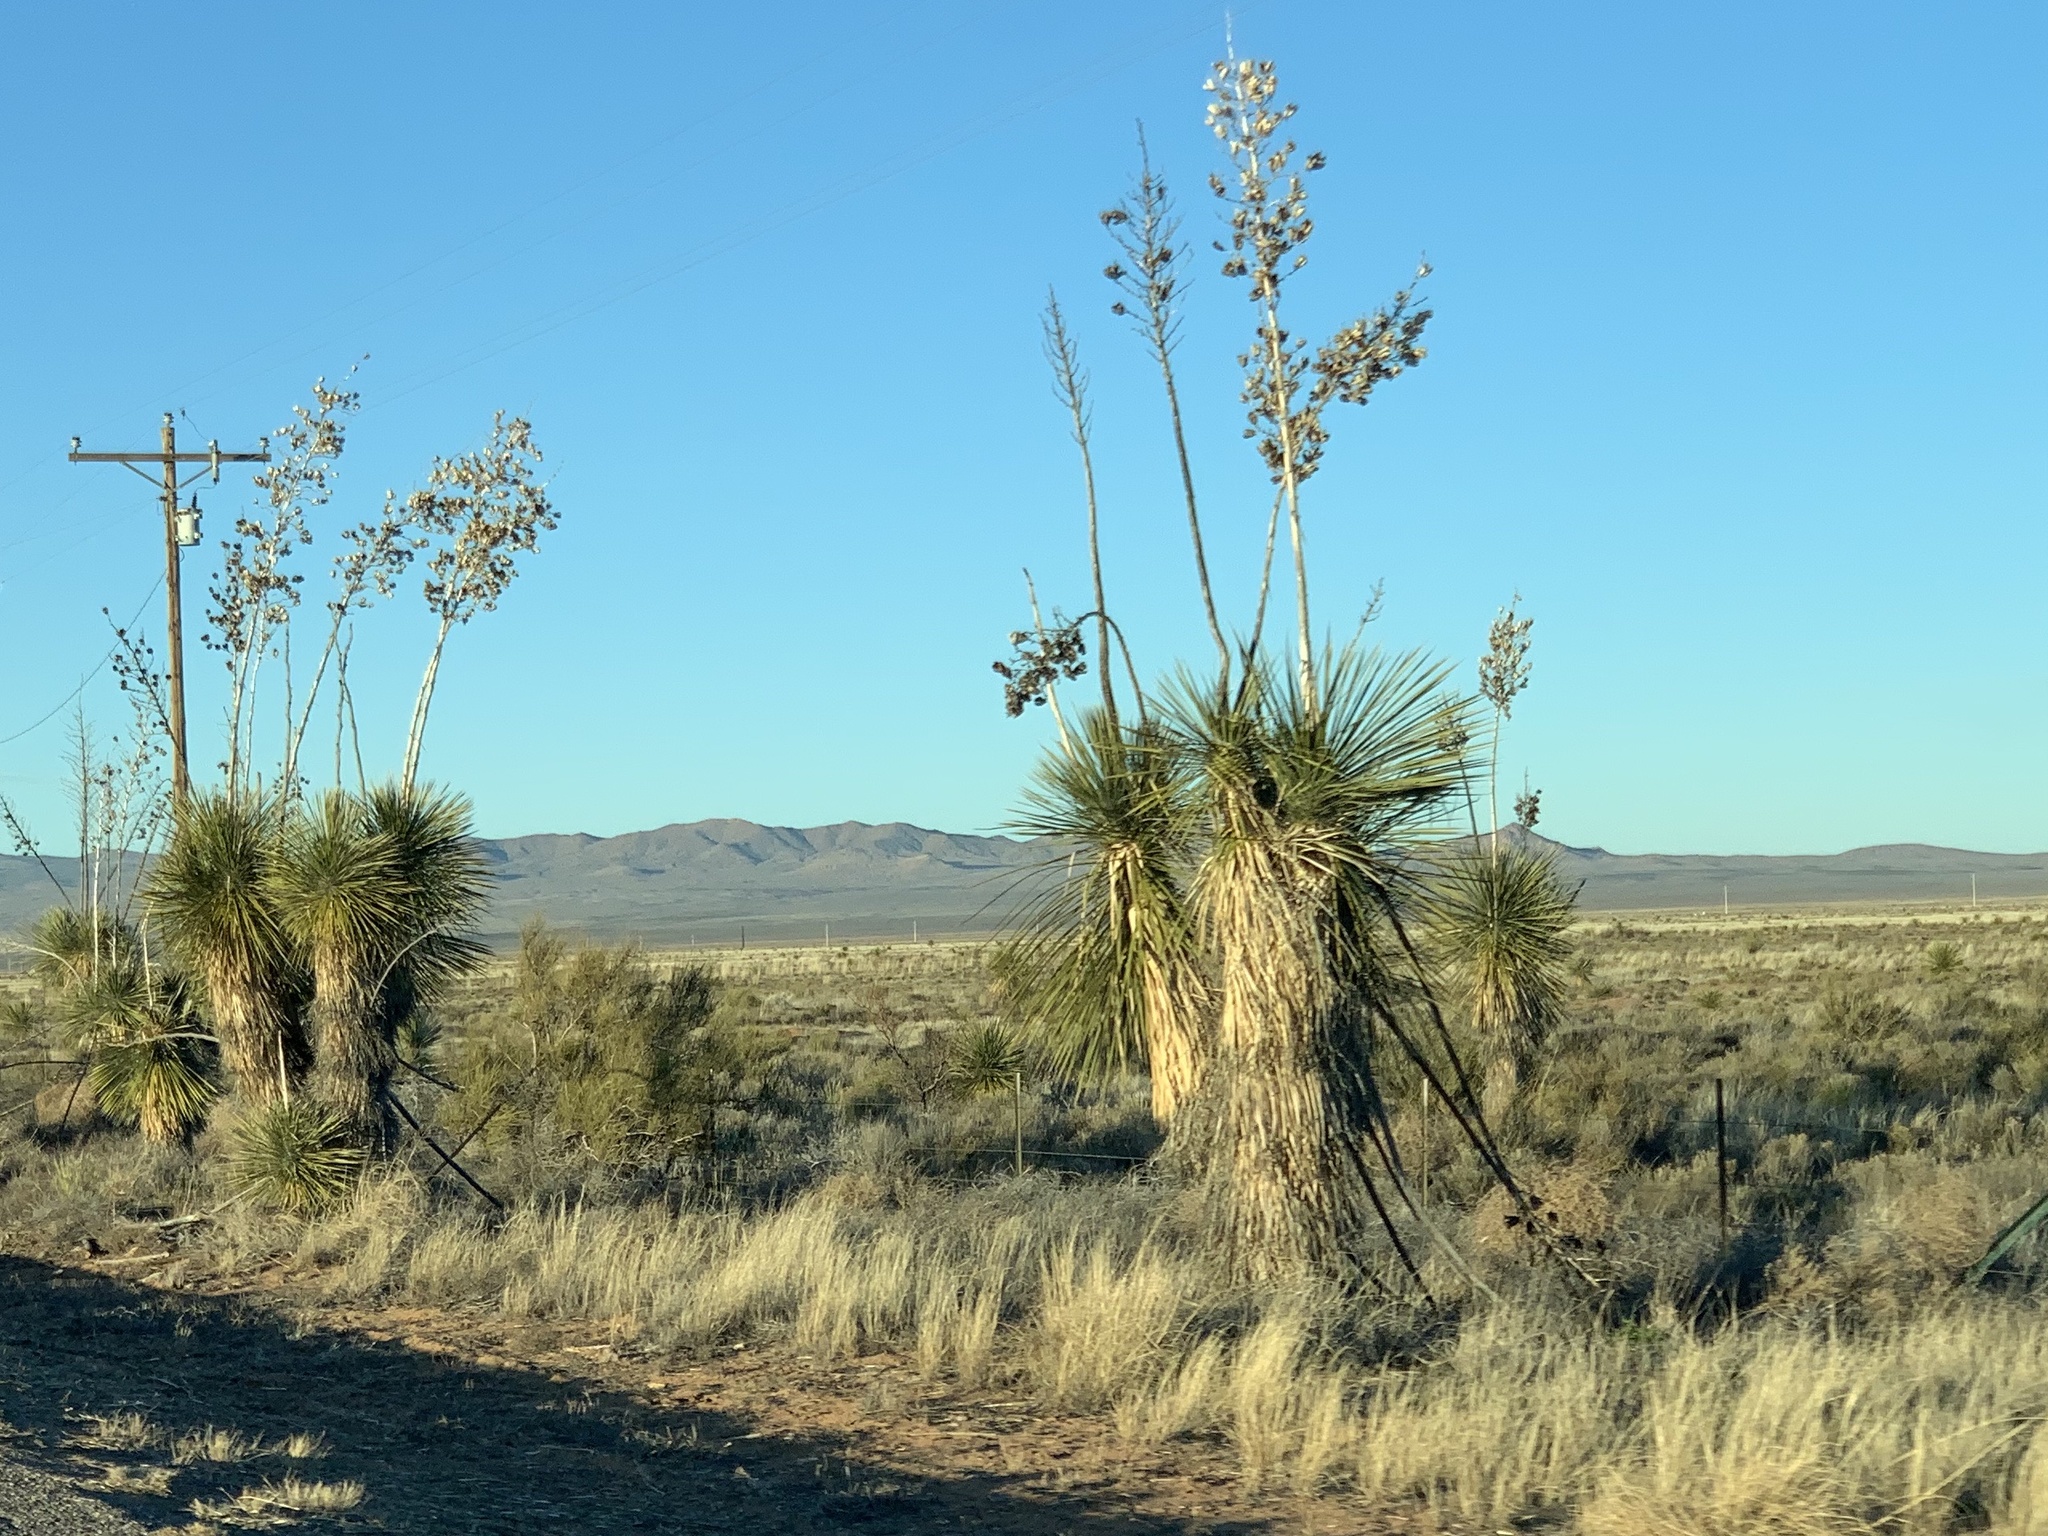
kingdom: Plantae
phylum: Tracheophyta
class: Liliopsida
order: Asparagales
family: Asparagaceae
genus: Yucca
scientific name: Yucca elata
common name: Palmella
